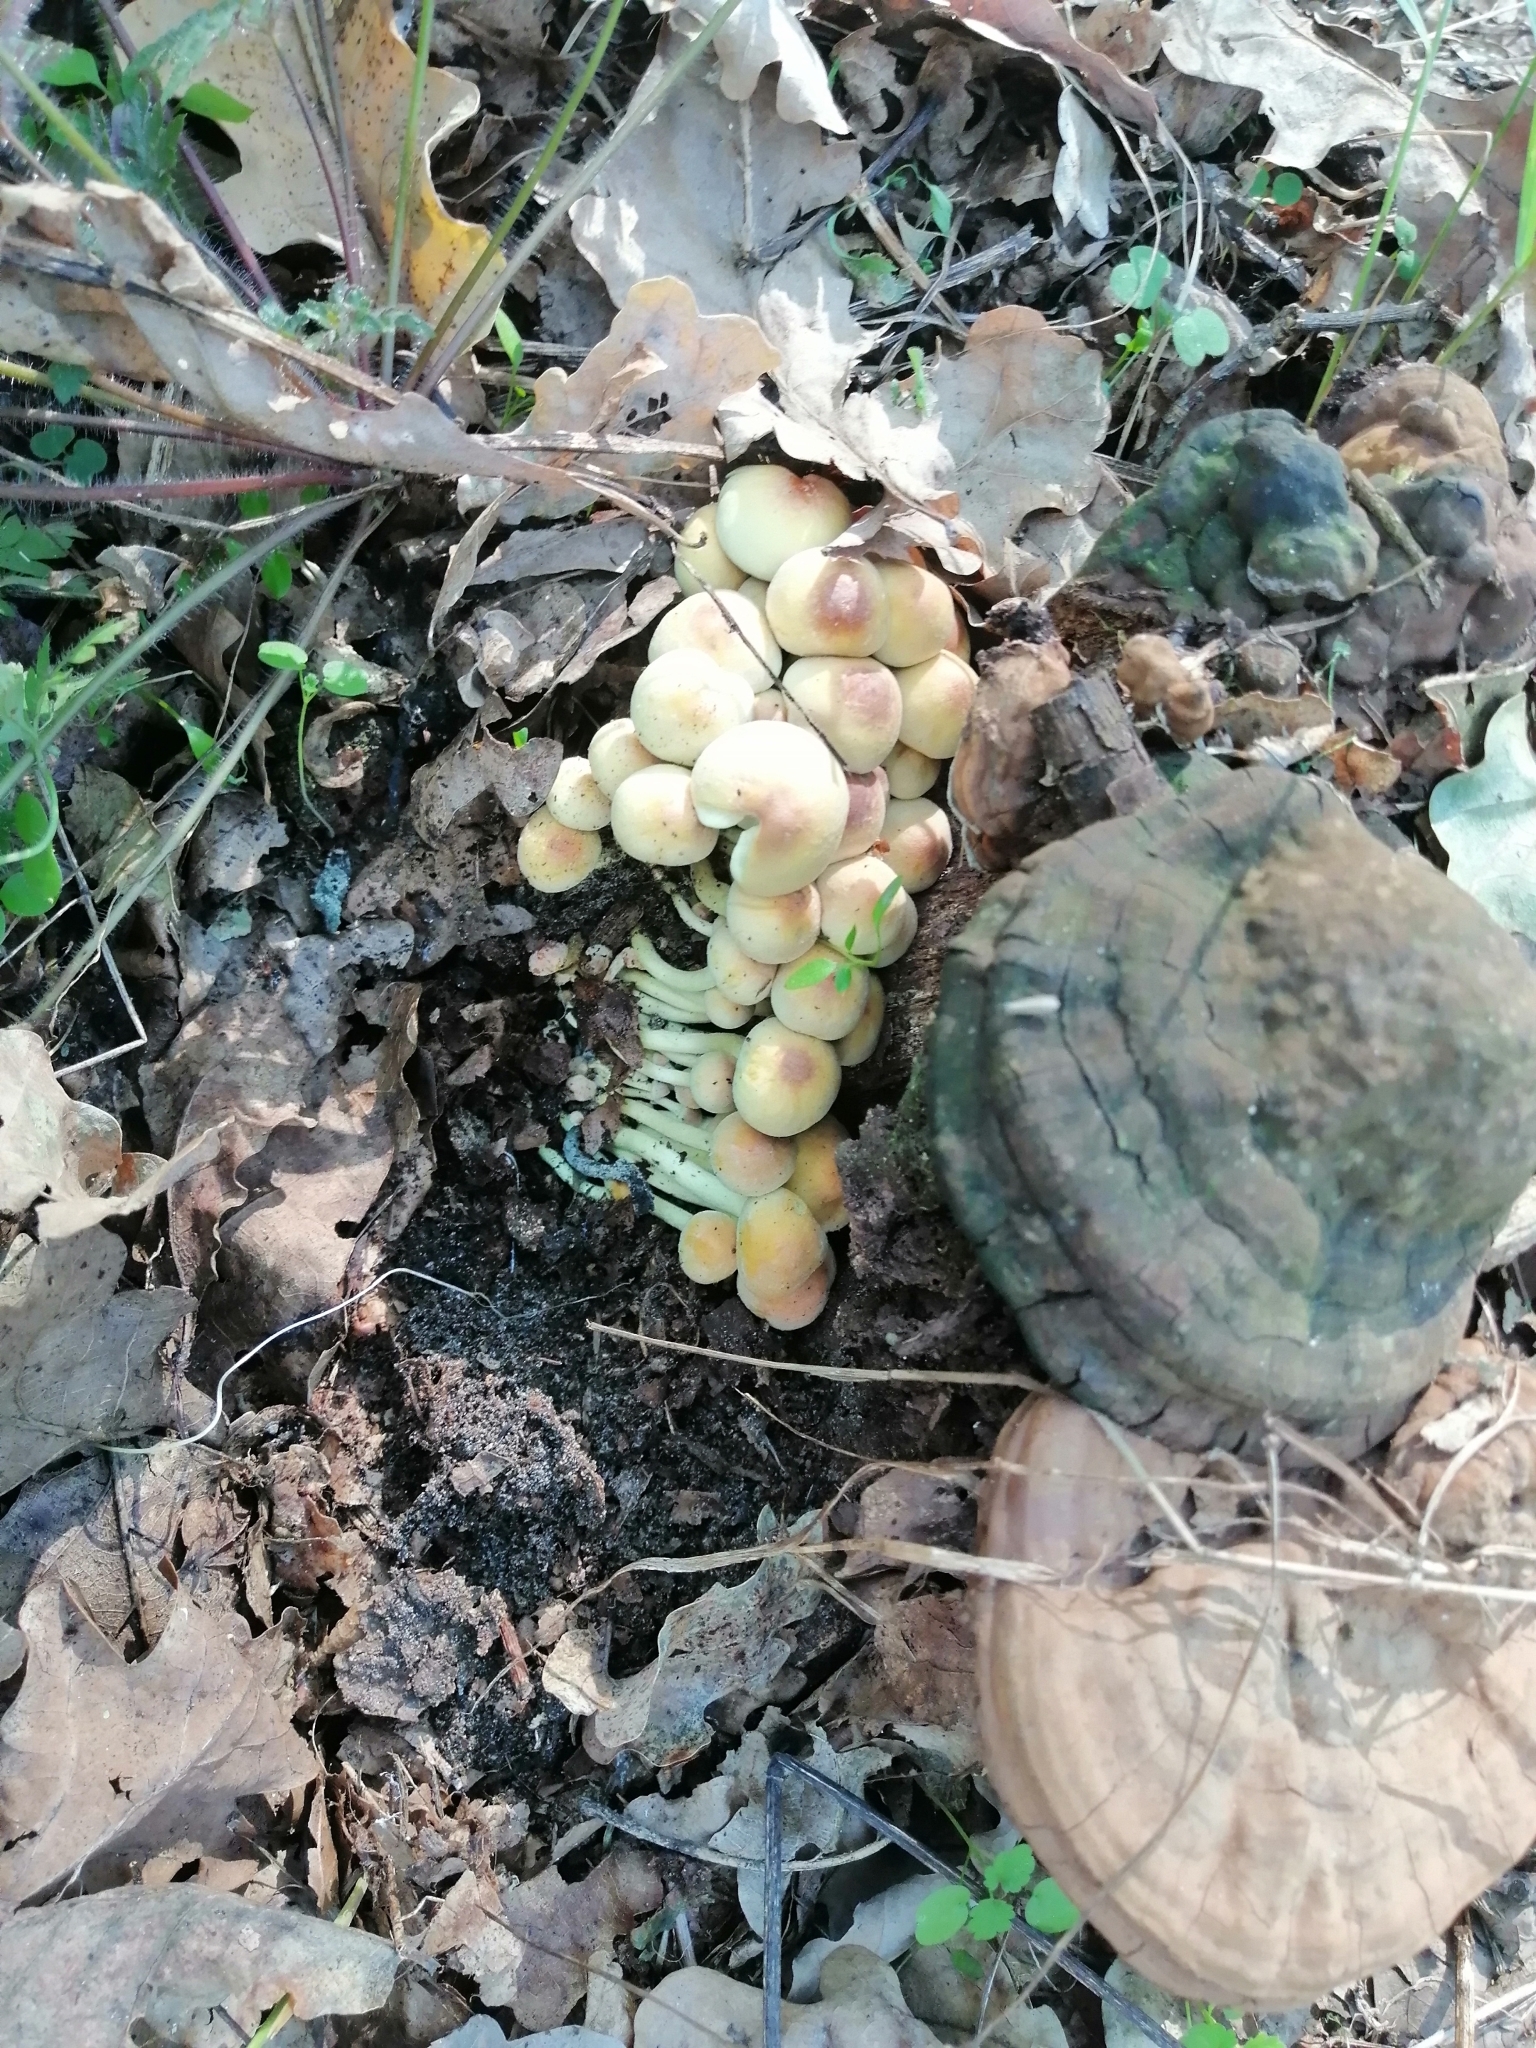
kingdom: Fungi
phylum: Basidiomycota
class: Agaricomycetes
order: Agaricales
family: Strophariaceae
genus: Hypholoma
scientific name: Hypholoma fasciculare
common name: Sulphur tuft
